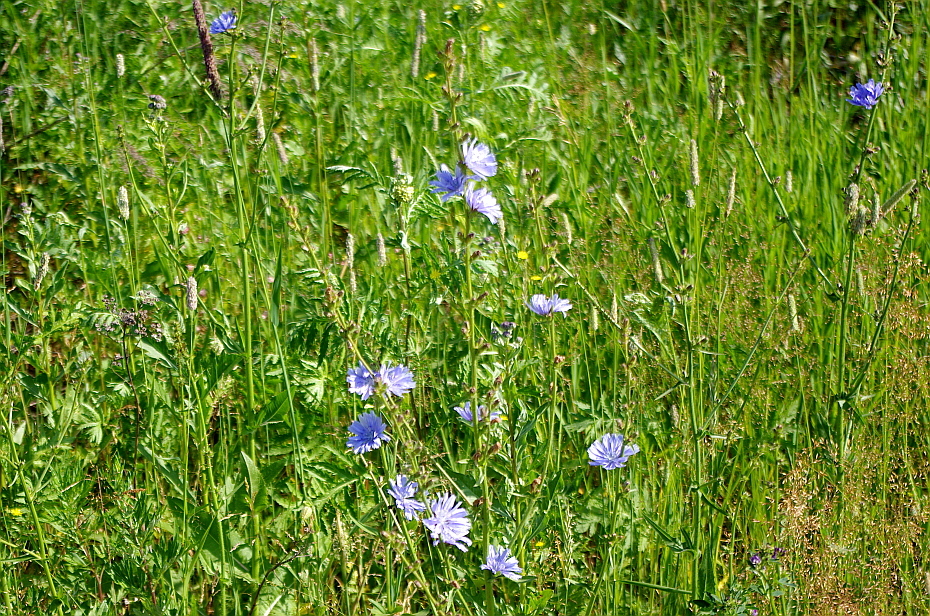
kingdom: Plantae
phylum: Tracheophyta
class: Magnoliopsida
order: Asterales
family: Asteraceae
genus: Cichorium
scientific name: Cichorium intybus
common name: Chicory
